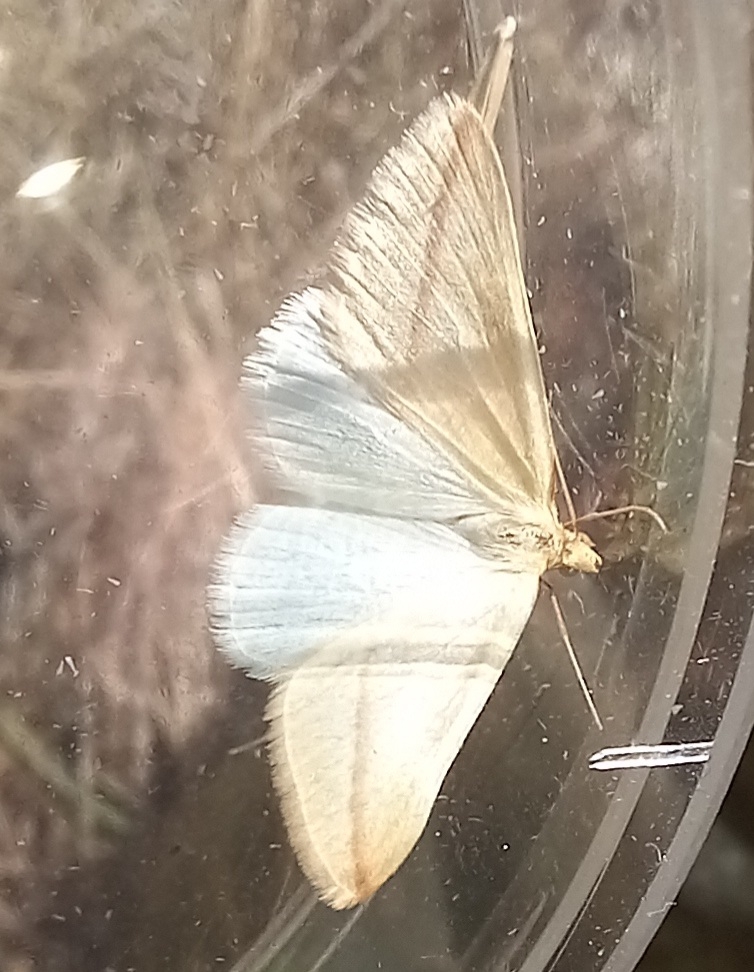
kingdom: Animalia
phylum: Arthropoda
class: Insecta
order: Lepidoptera
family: Geometridae
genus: Rhodometra
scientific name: Rhodometra sacraria
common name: Vestal
